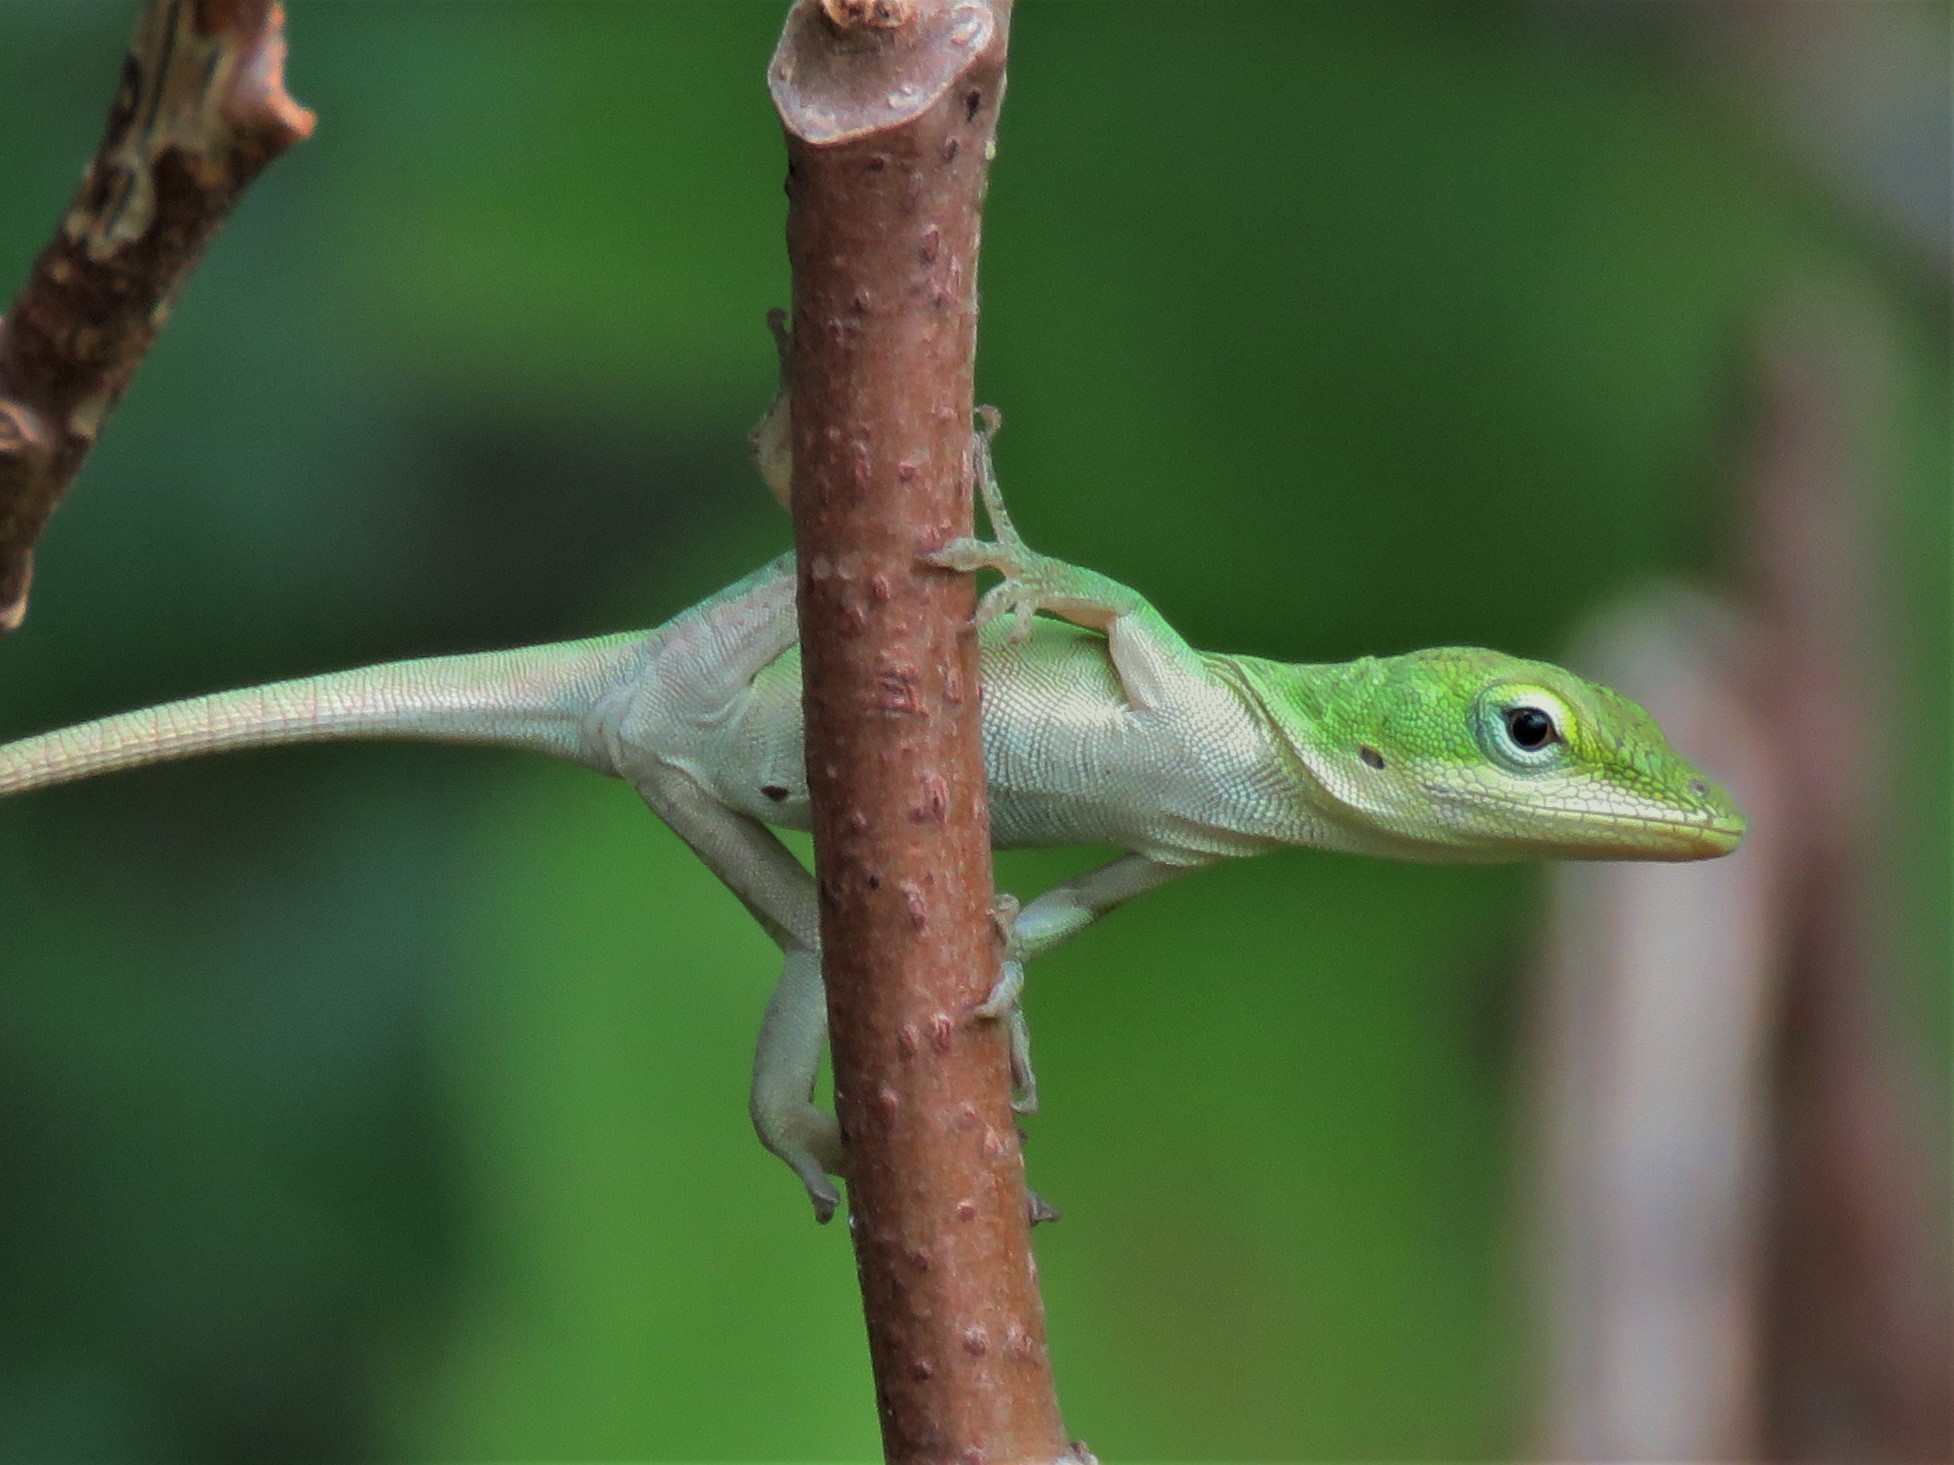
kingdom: Animalia
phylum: Chordata
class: Squamata
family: Dactyloidae
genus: Anolis
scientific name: Anolis carolinensis
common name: Green anole
